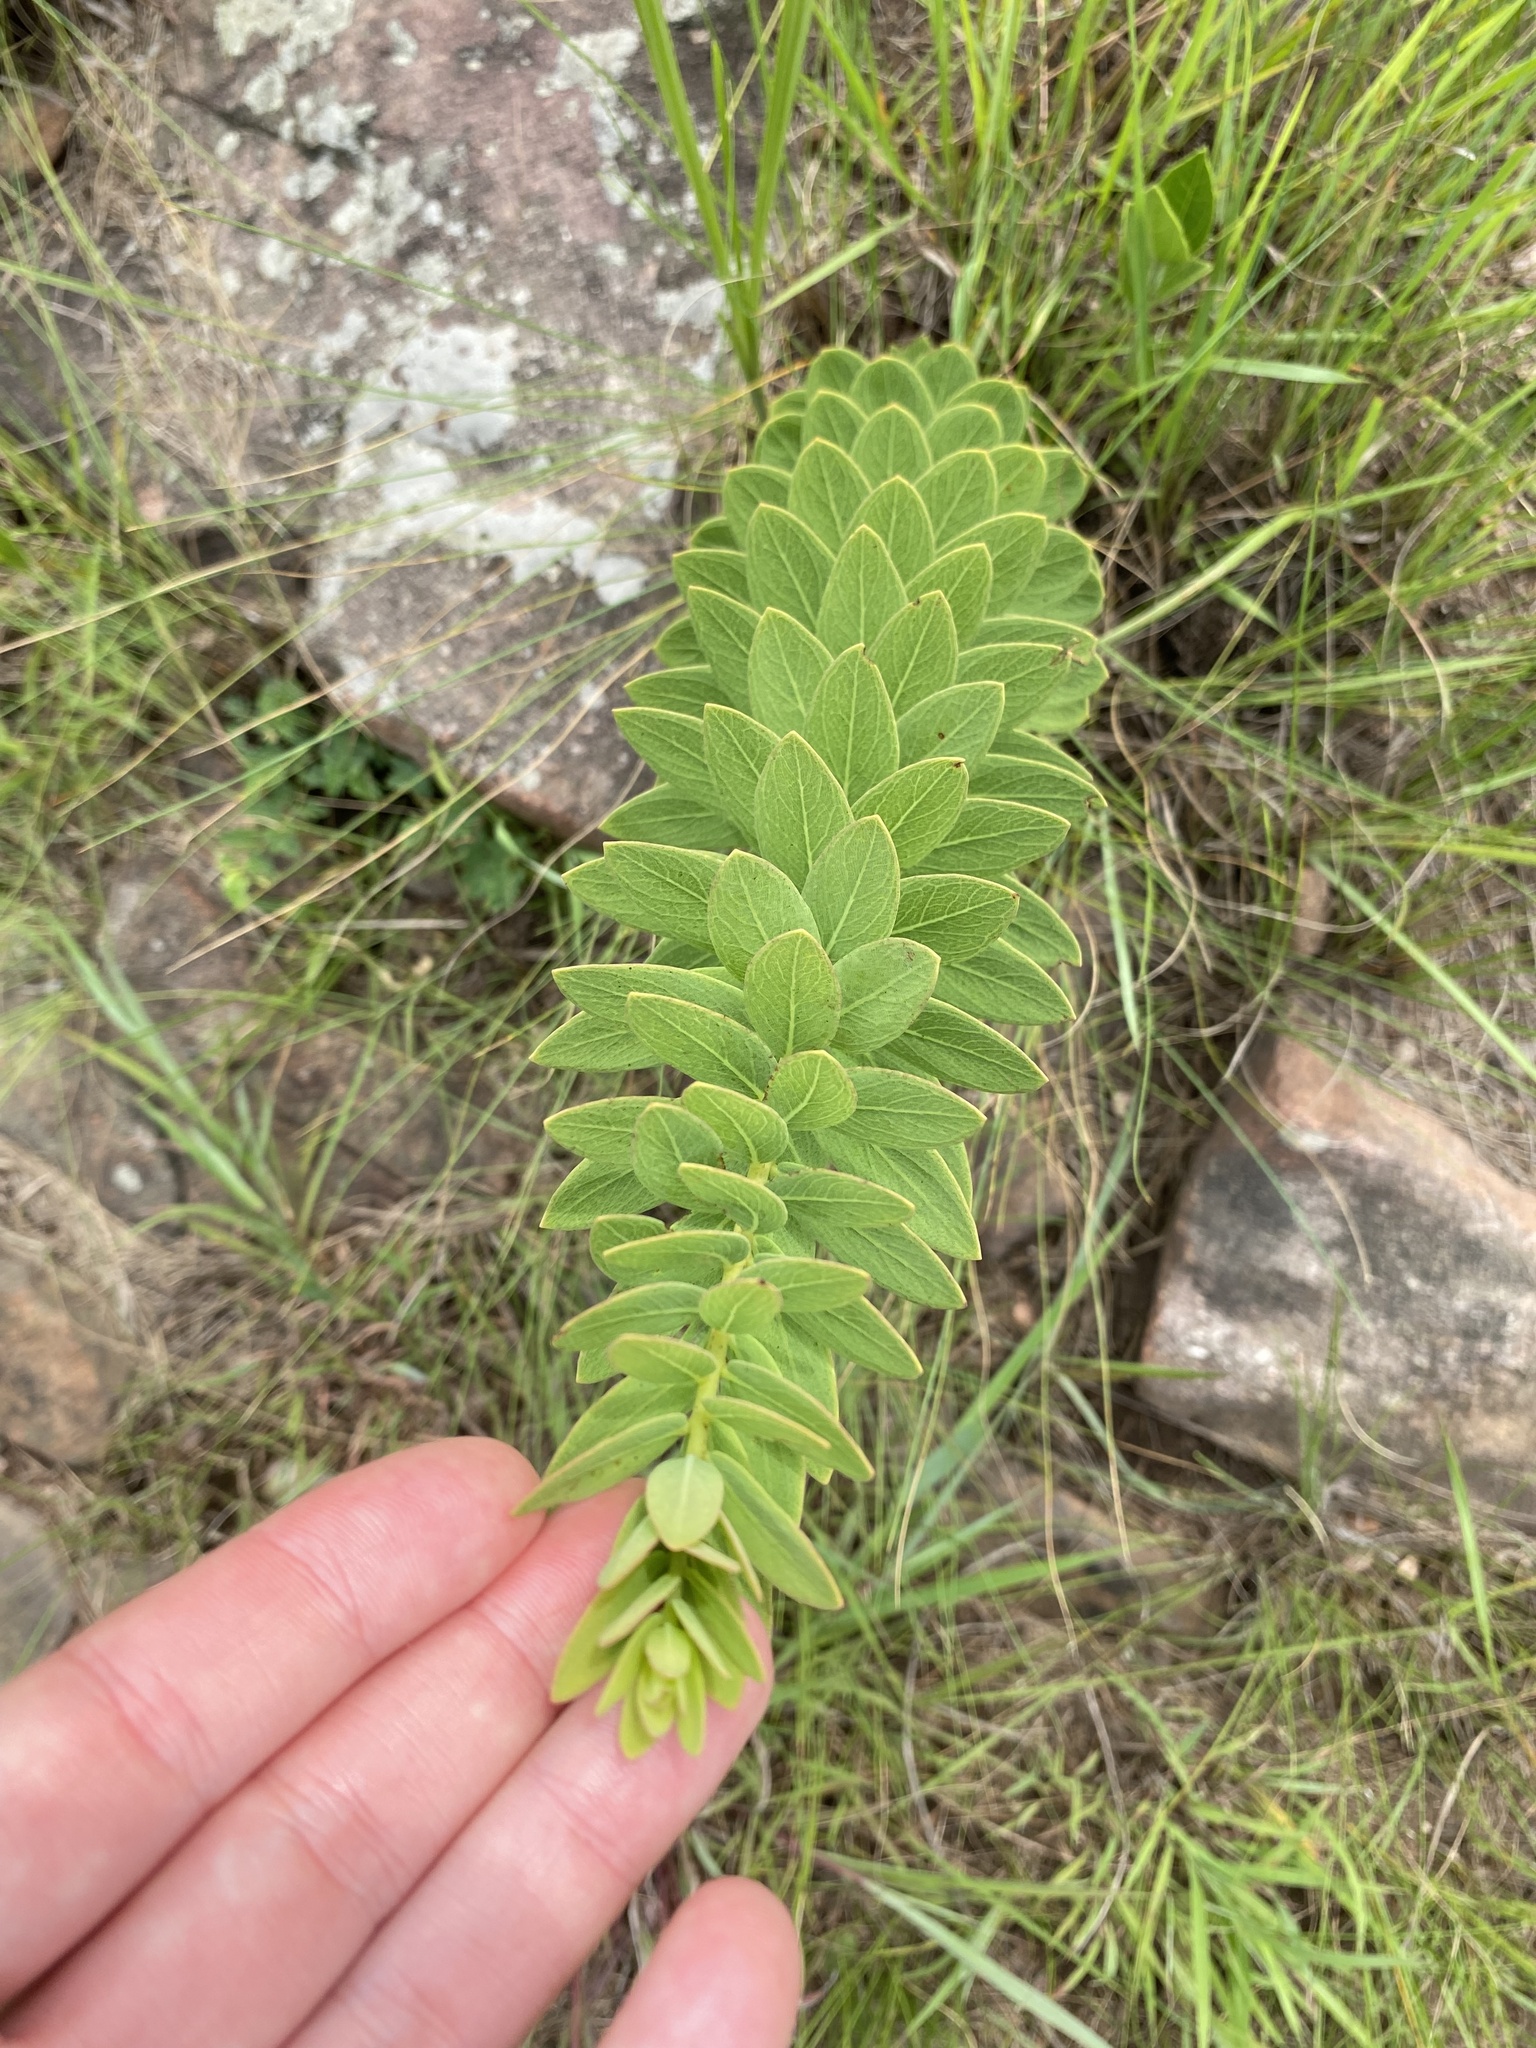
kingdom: Plantae
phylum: Tracheophyta
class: Magnoliopsida
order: Malvales
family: Thymelaeaceae
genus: Gnidia
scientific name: Gnidia kraussiana
